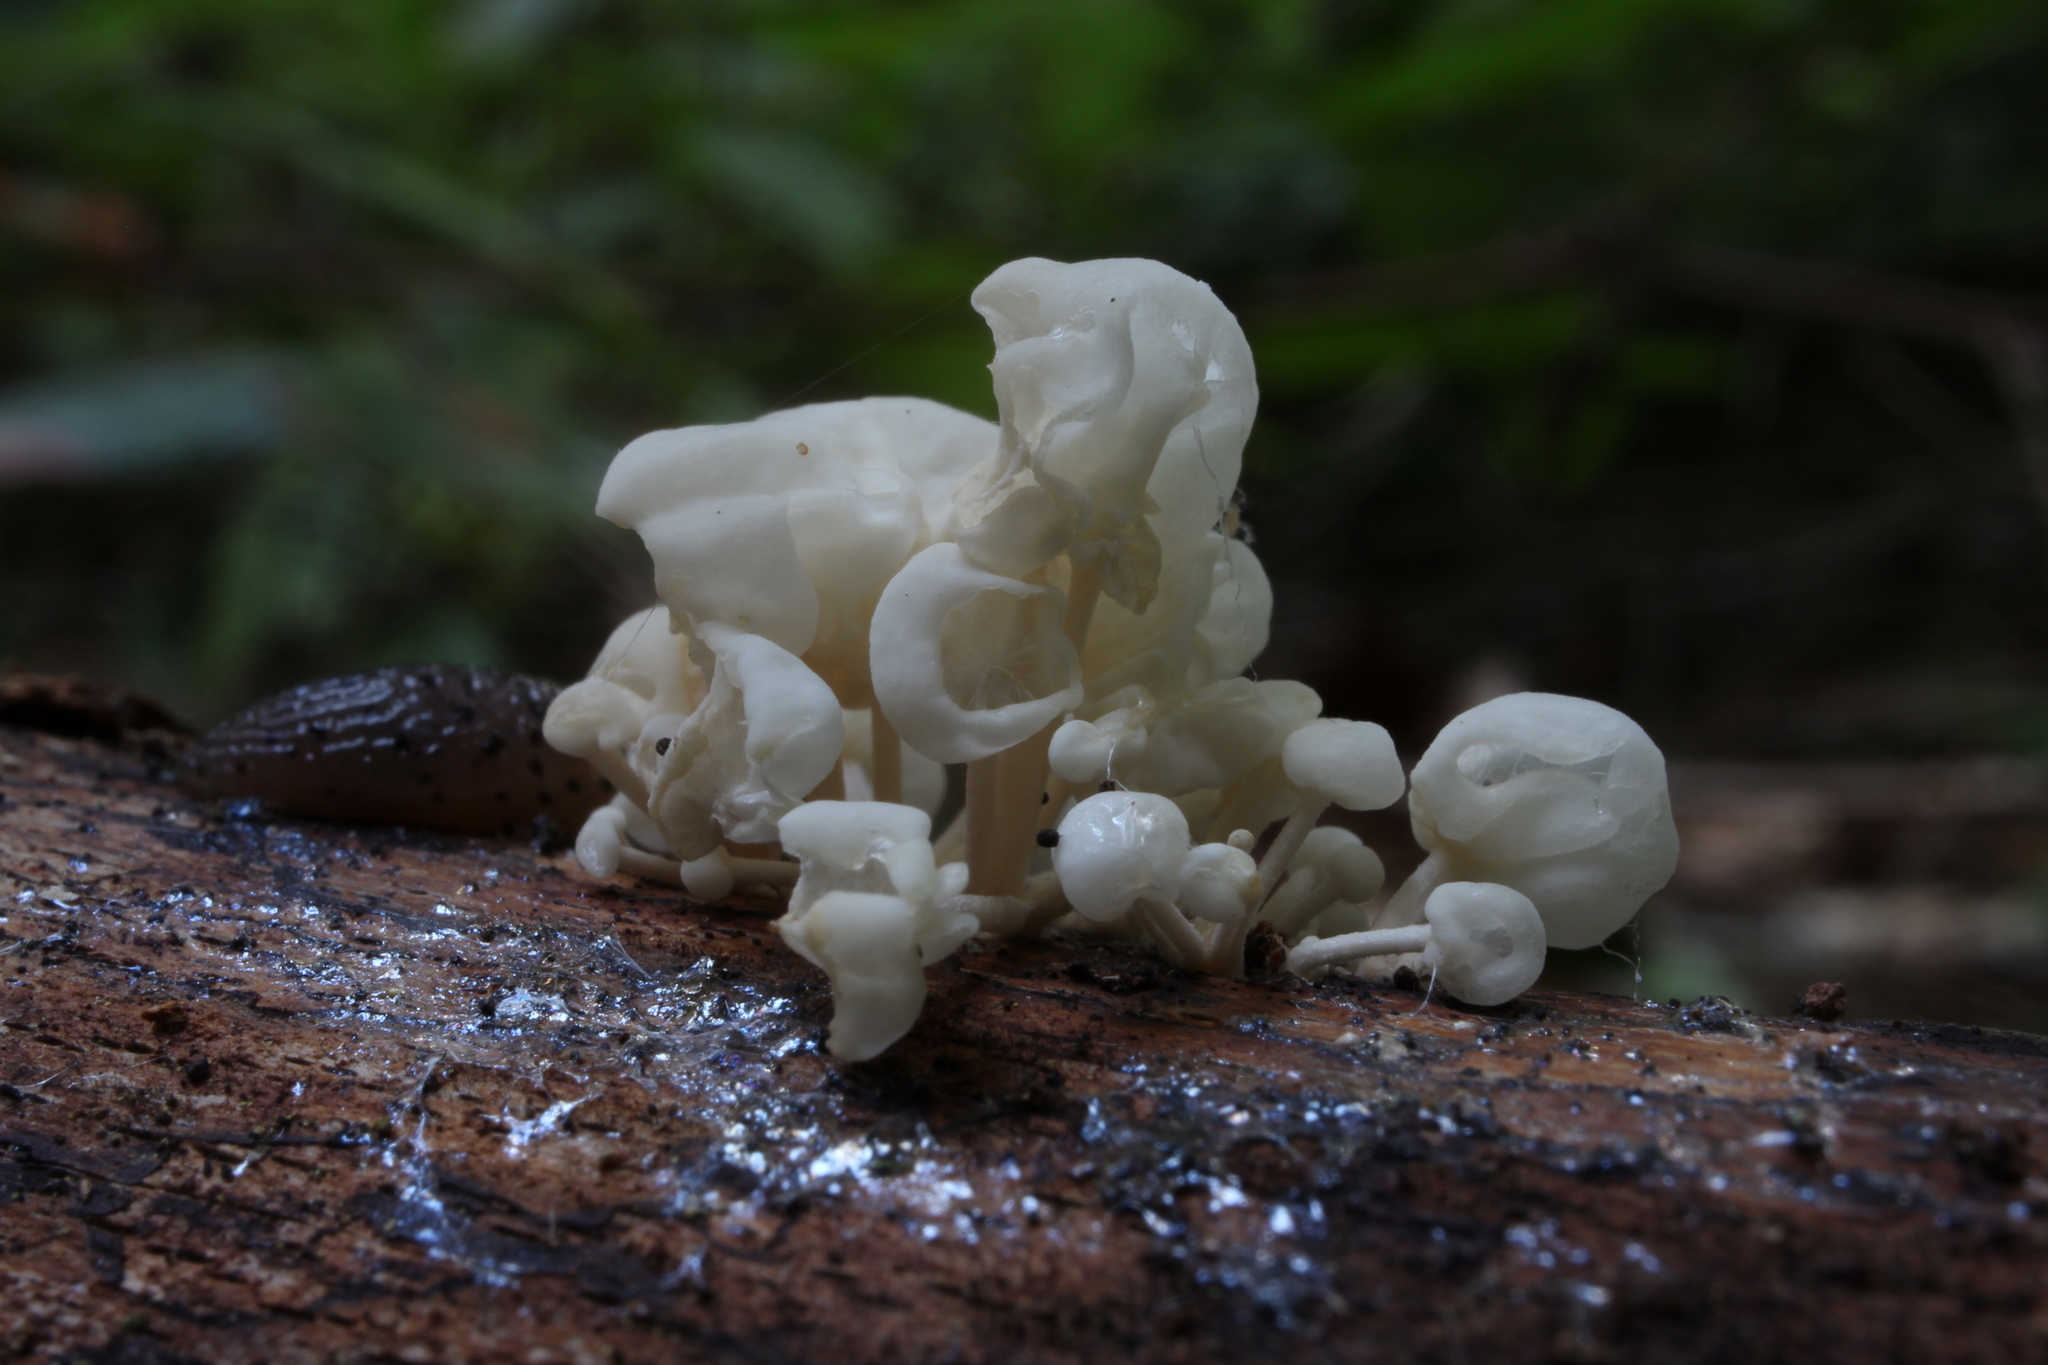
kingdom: Fungi
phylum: Basidiomycota
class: Agaricomycetes
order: Agaricales
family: Physalacriaceae
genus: Physalacria
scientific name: Physalacria inflata
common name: Bladder stalks
